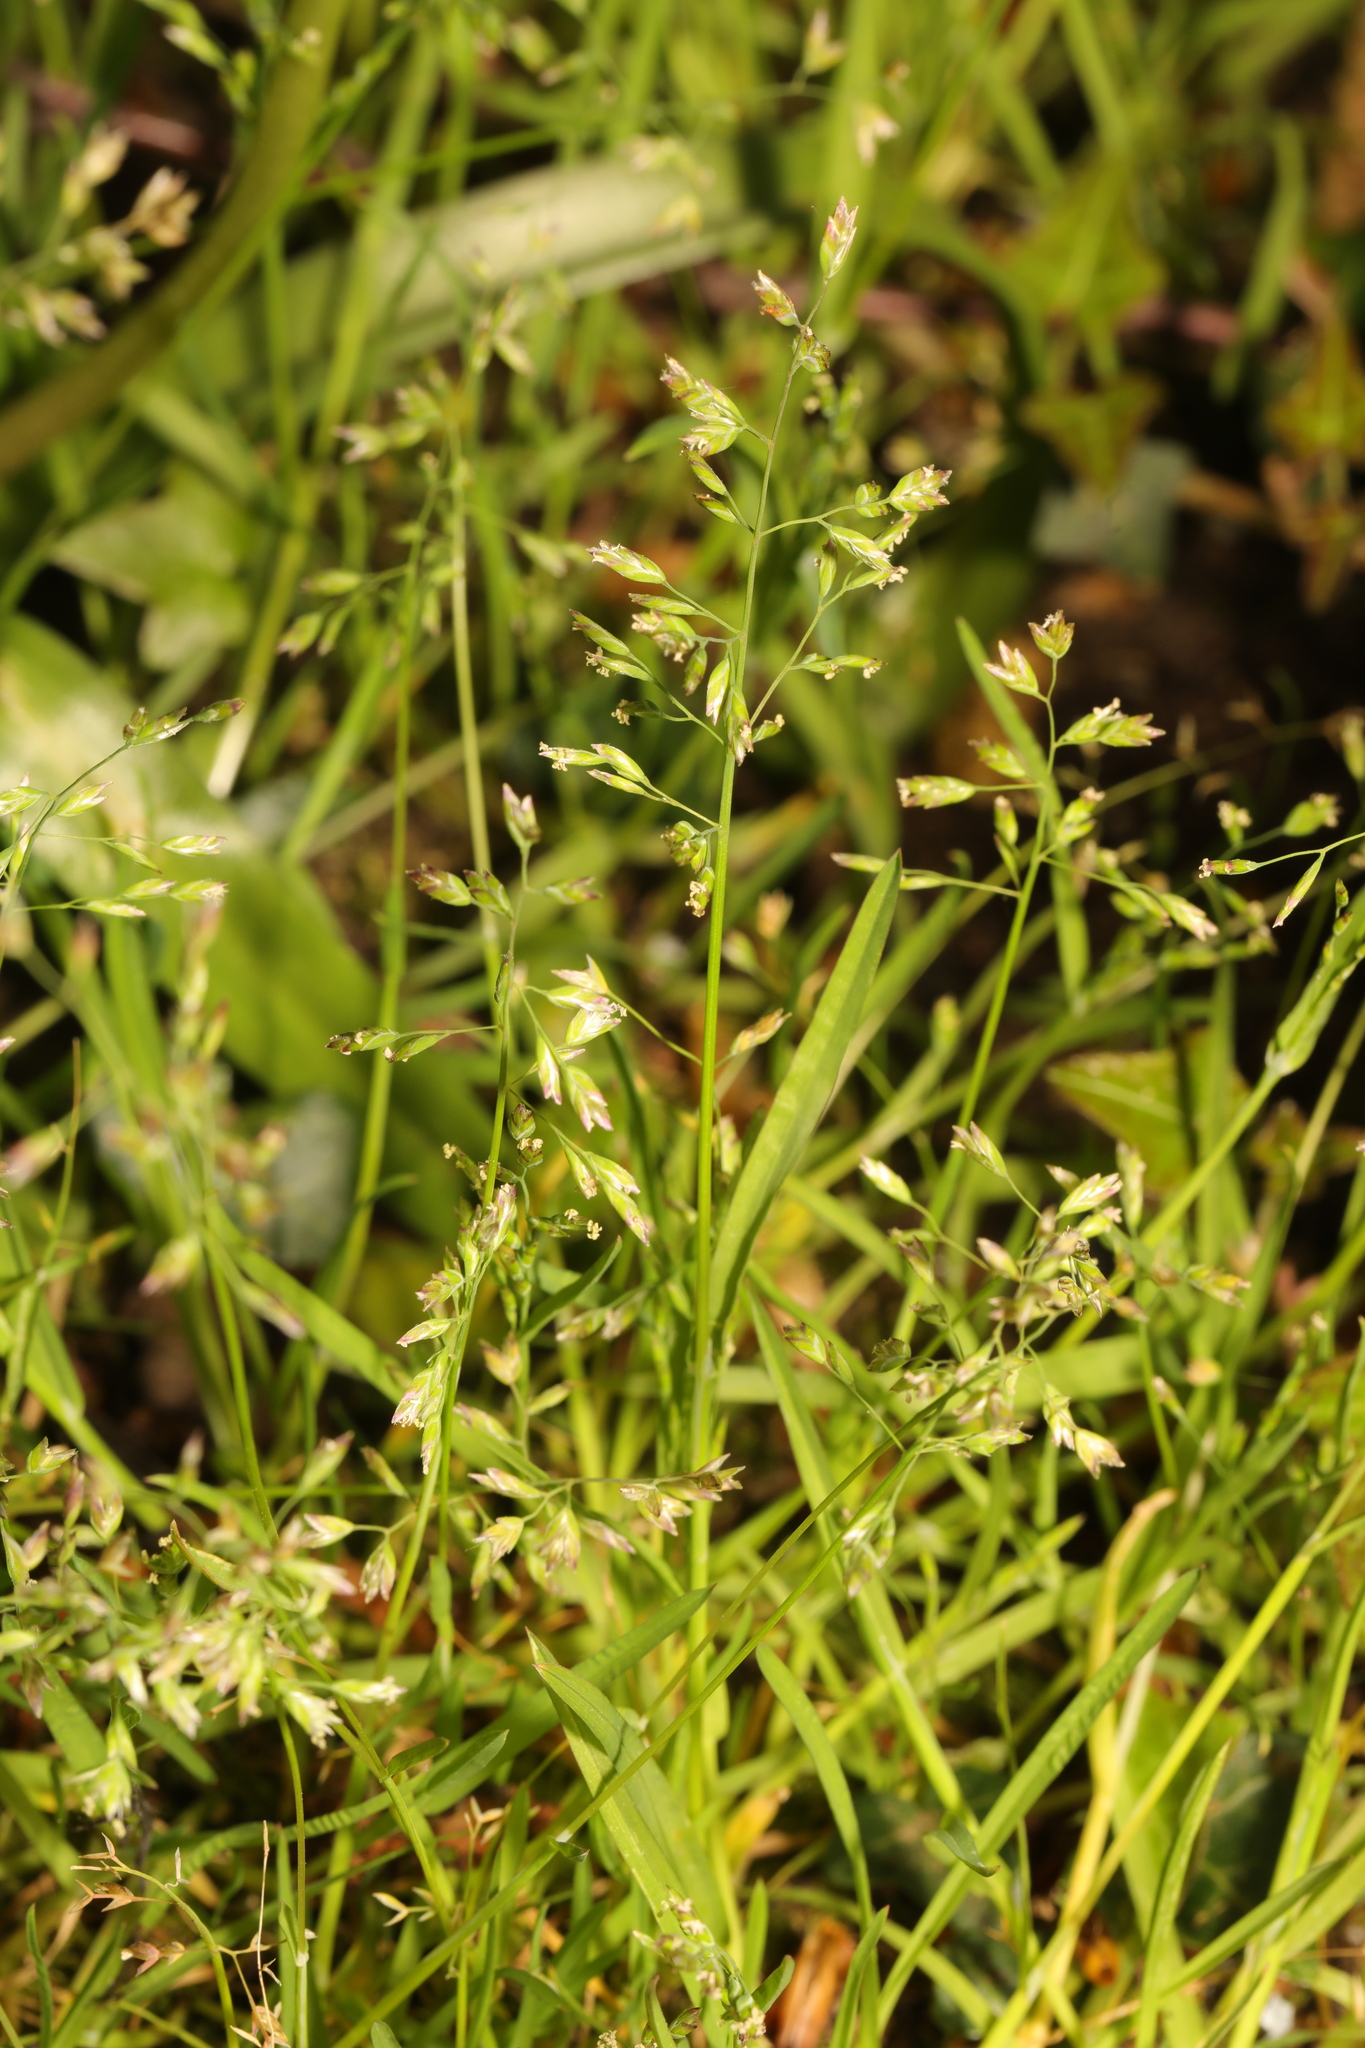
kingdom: Plantae
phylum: Tracheophyta
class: Liliopsida
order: Poales
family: Poaceae
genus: Poa
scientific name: Poa annua
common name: Annual bluegrass
